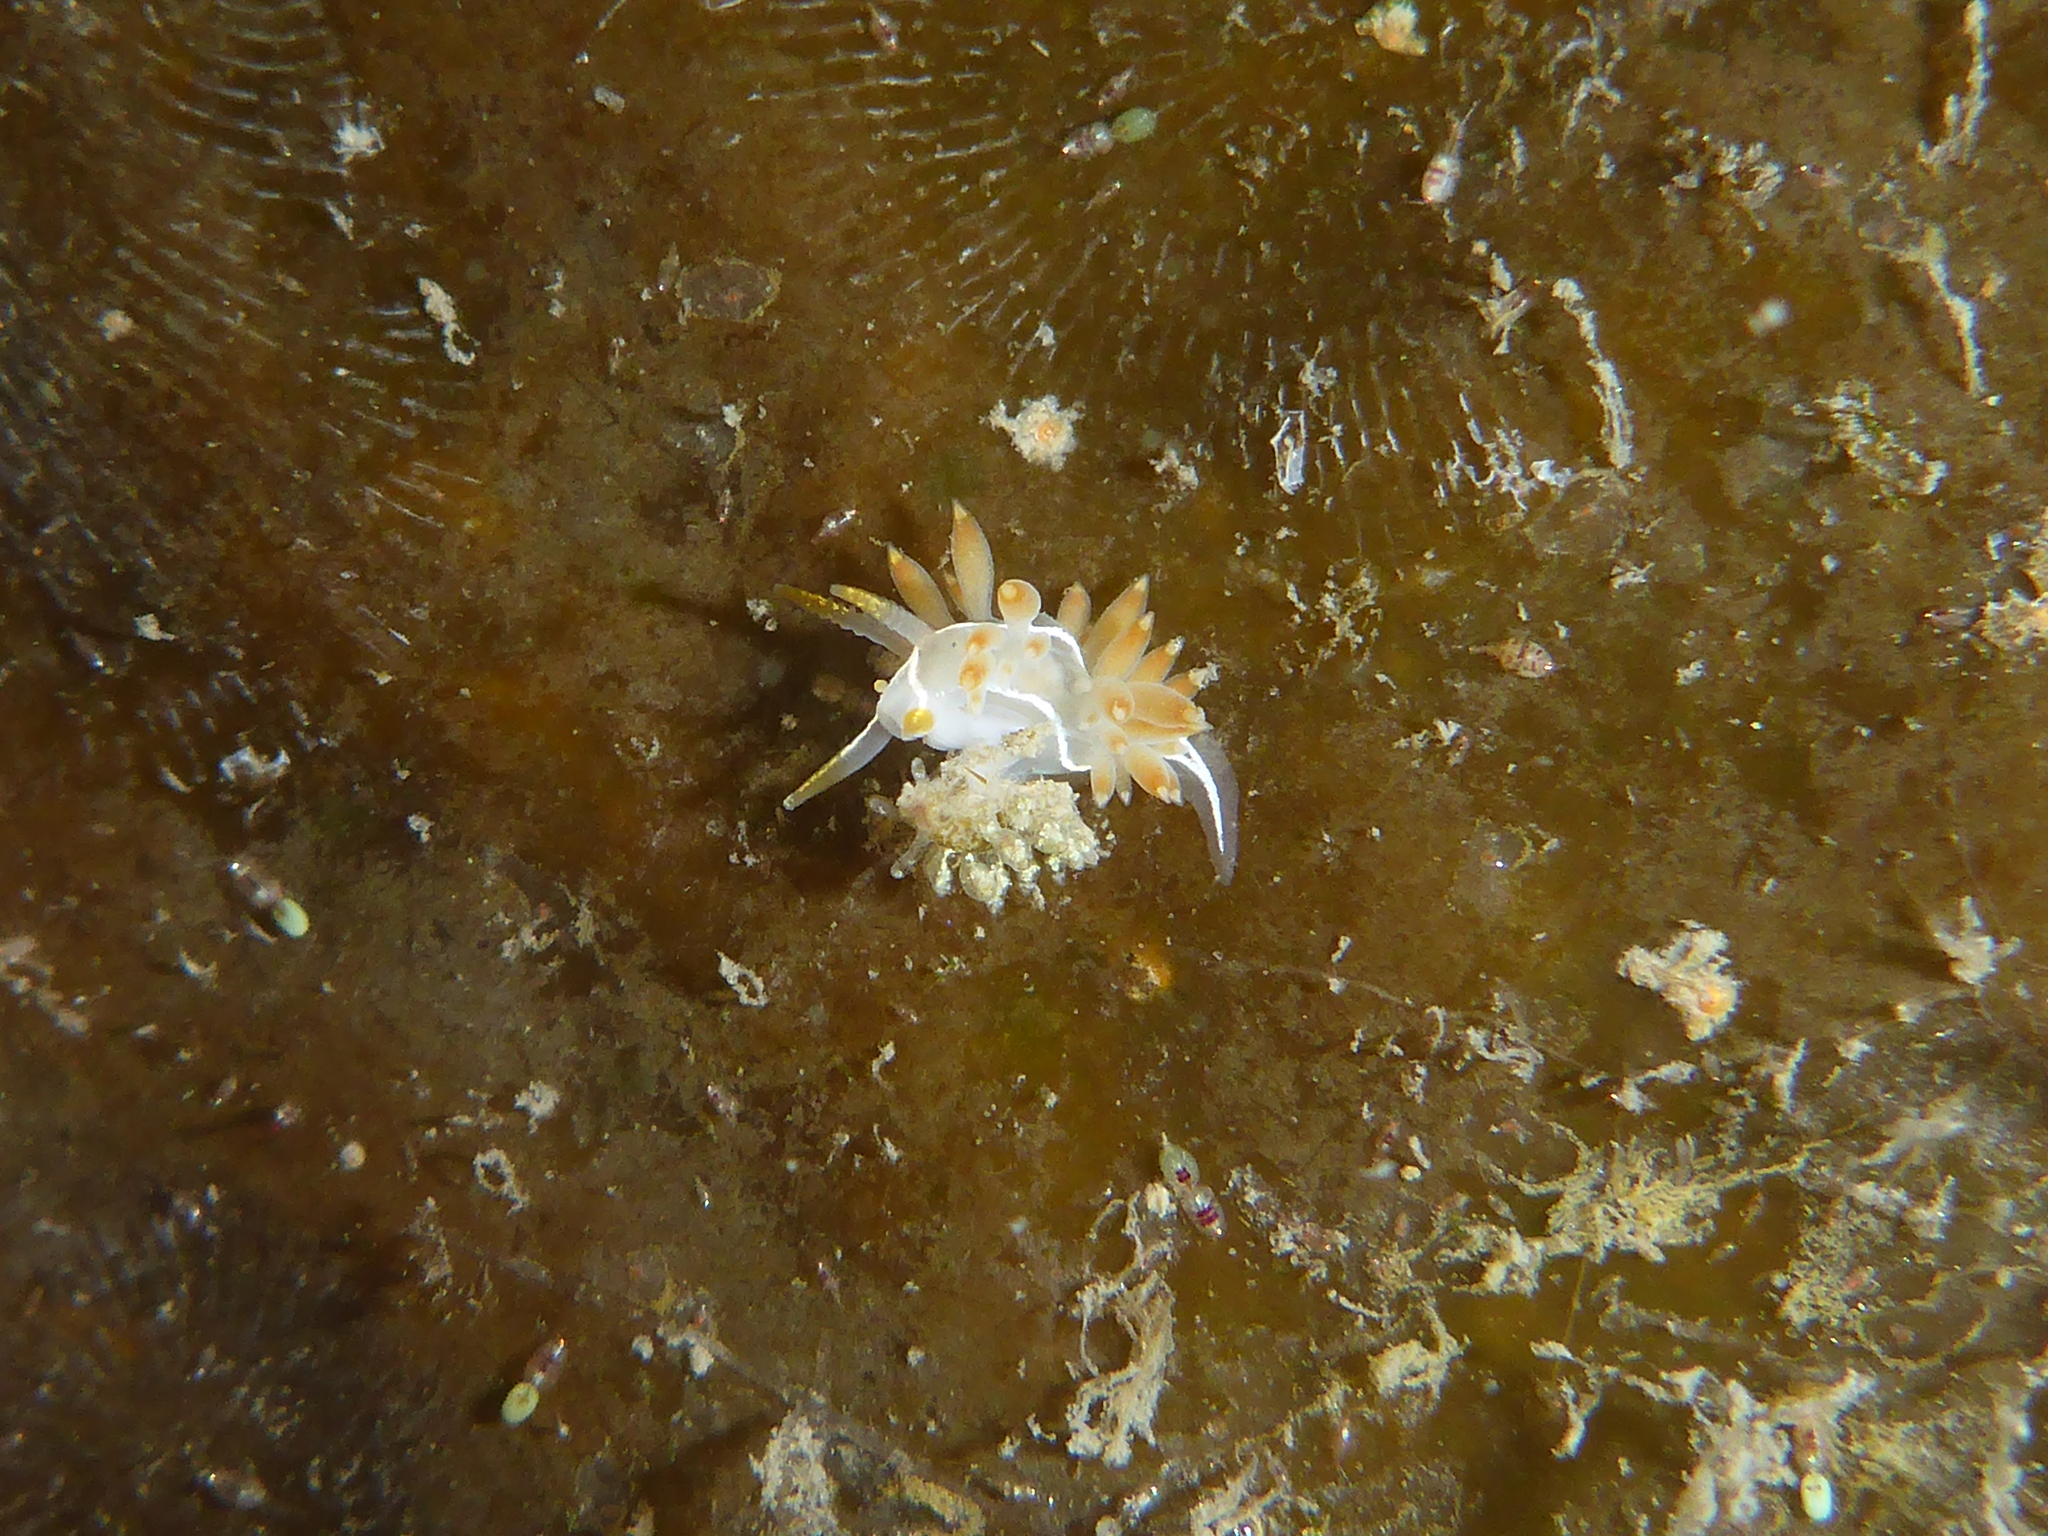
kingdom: Animalia
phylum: Mollusca
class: Gastropoda
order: Nudibranchia
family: Coryphellidae
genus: Coryphella
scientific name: Coryphella trilineata
